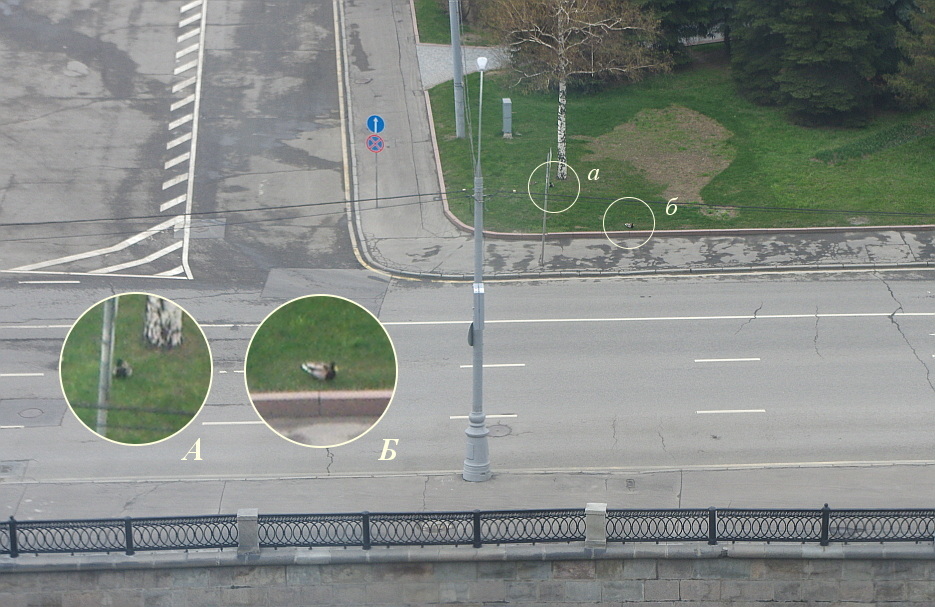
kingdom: Animalia
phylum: Chordata
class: Aves
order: Anseriformes
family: Anatidae
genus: Anas
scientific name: Anas platyrhynchos
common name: Mallard
